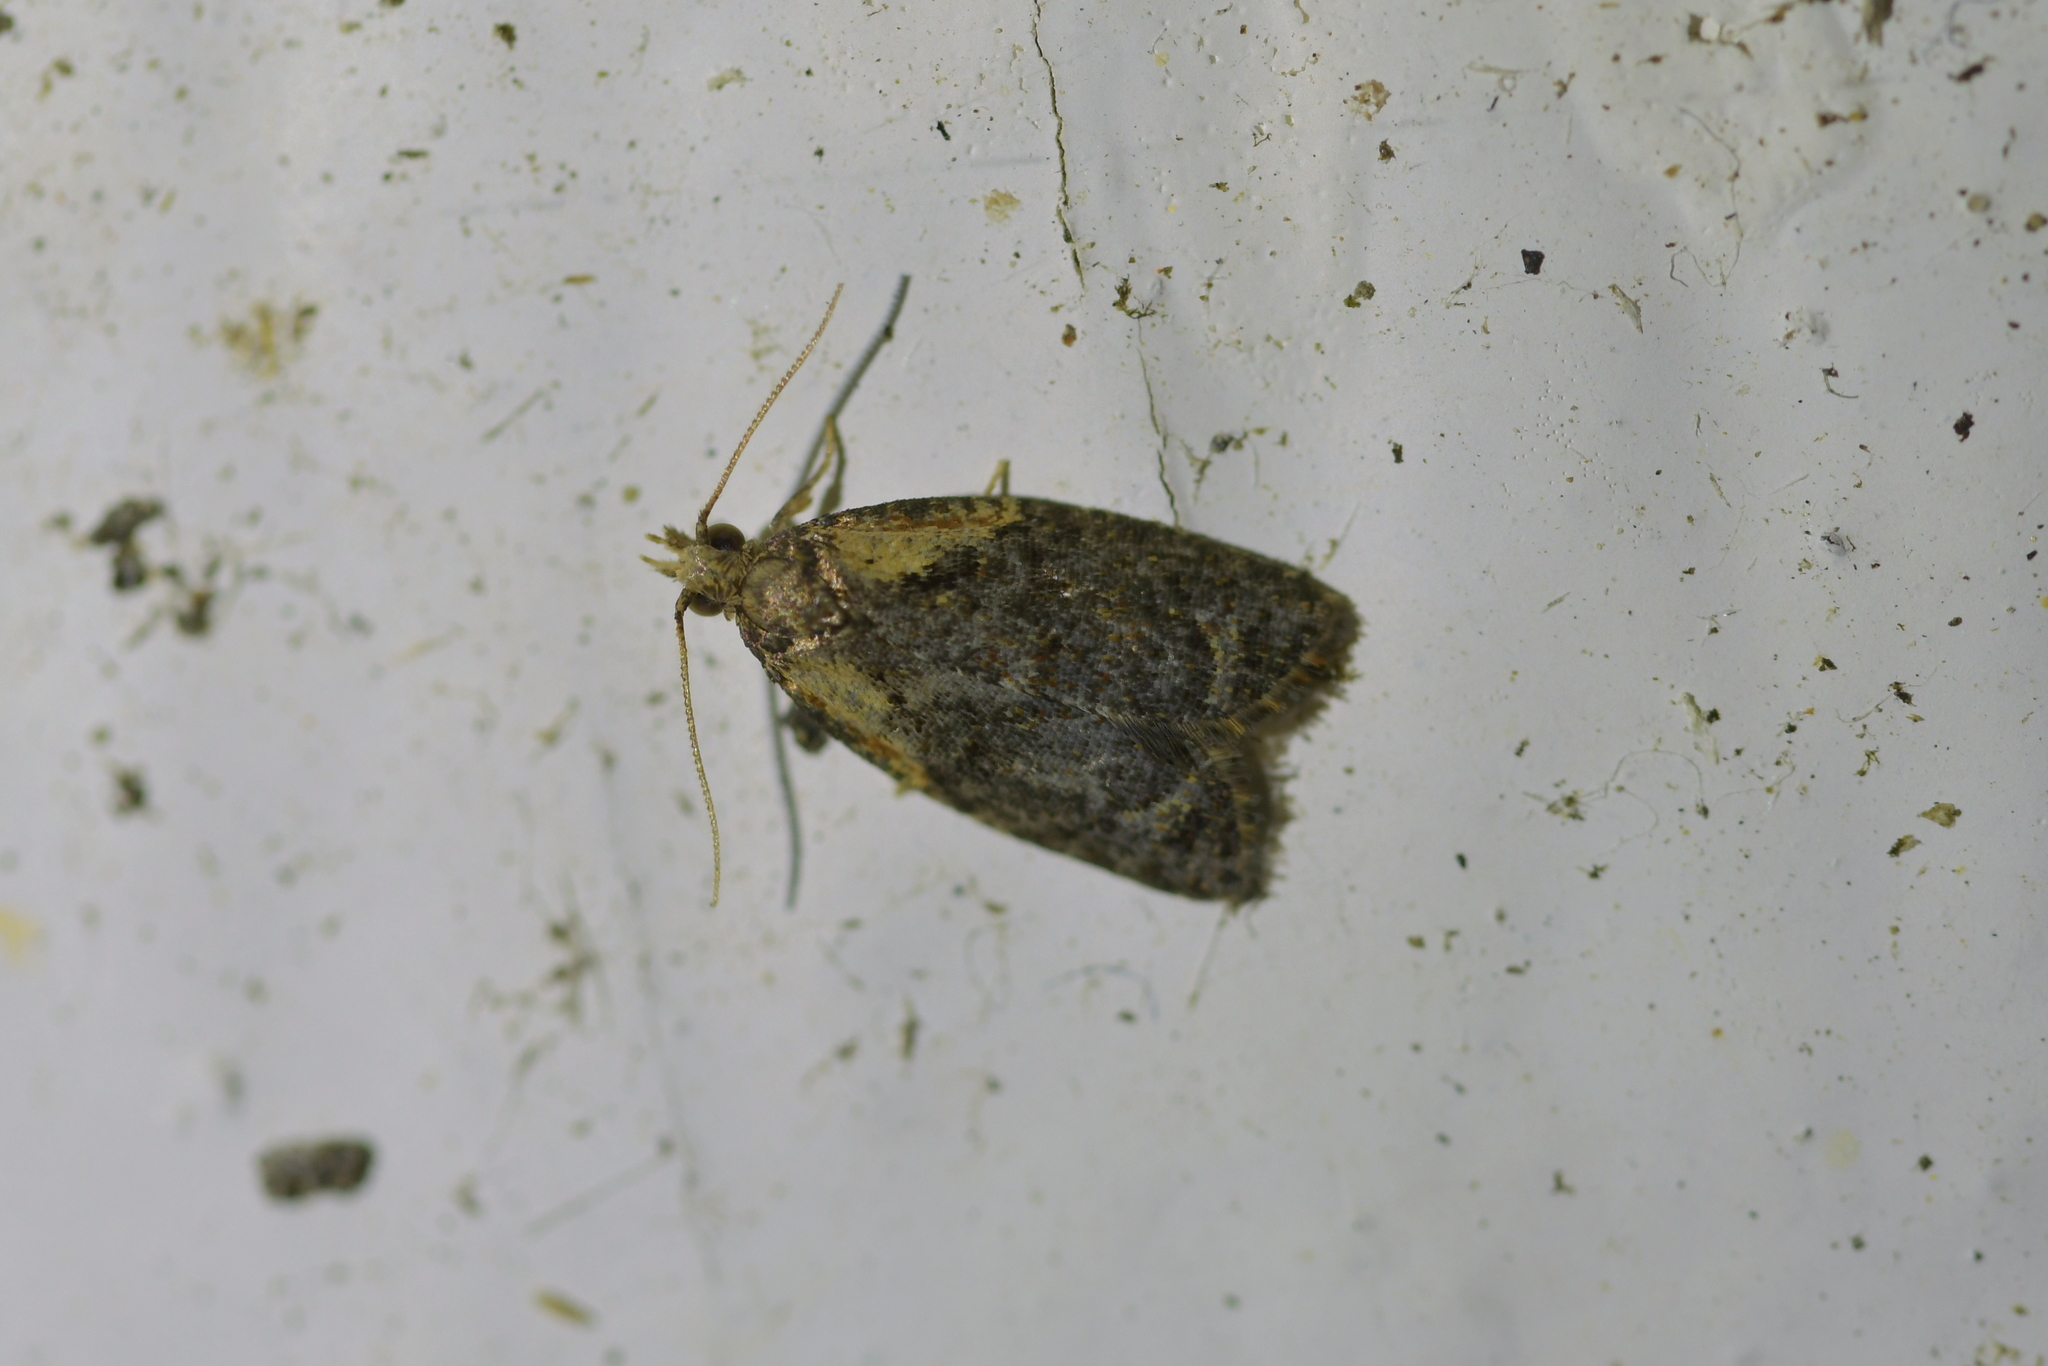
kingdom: Animalia
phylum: Arthropoda
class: Insecta
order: Lepidoptera
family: Tortricidae
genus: Capua
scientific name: Capua intractana
